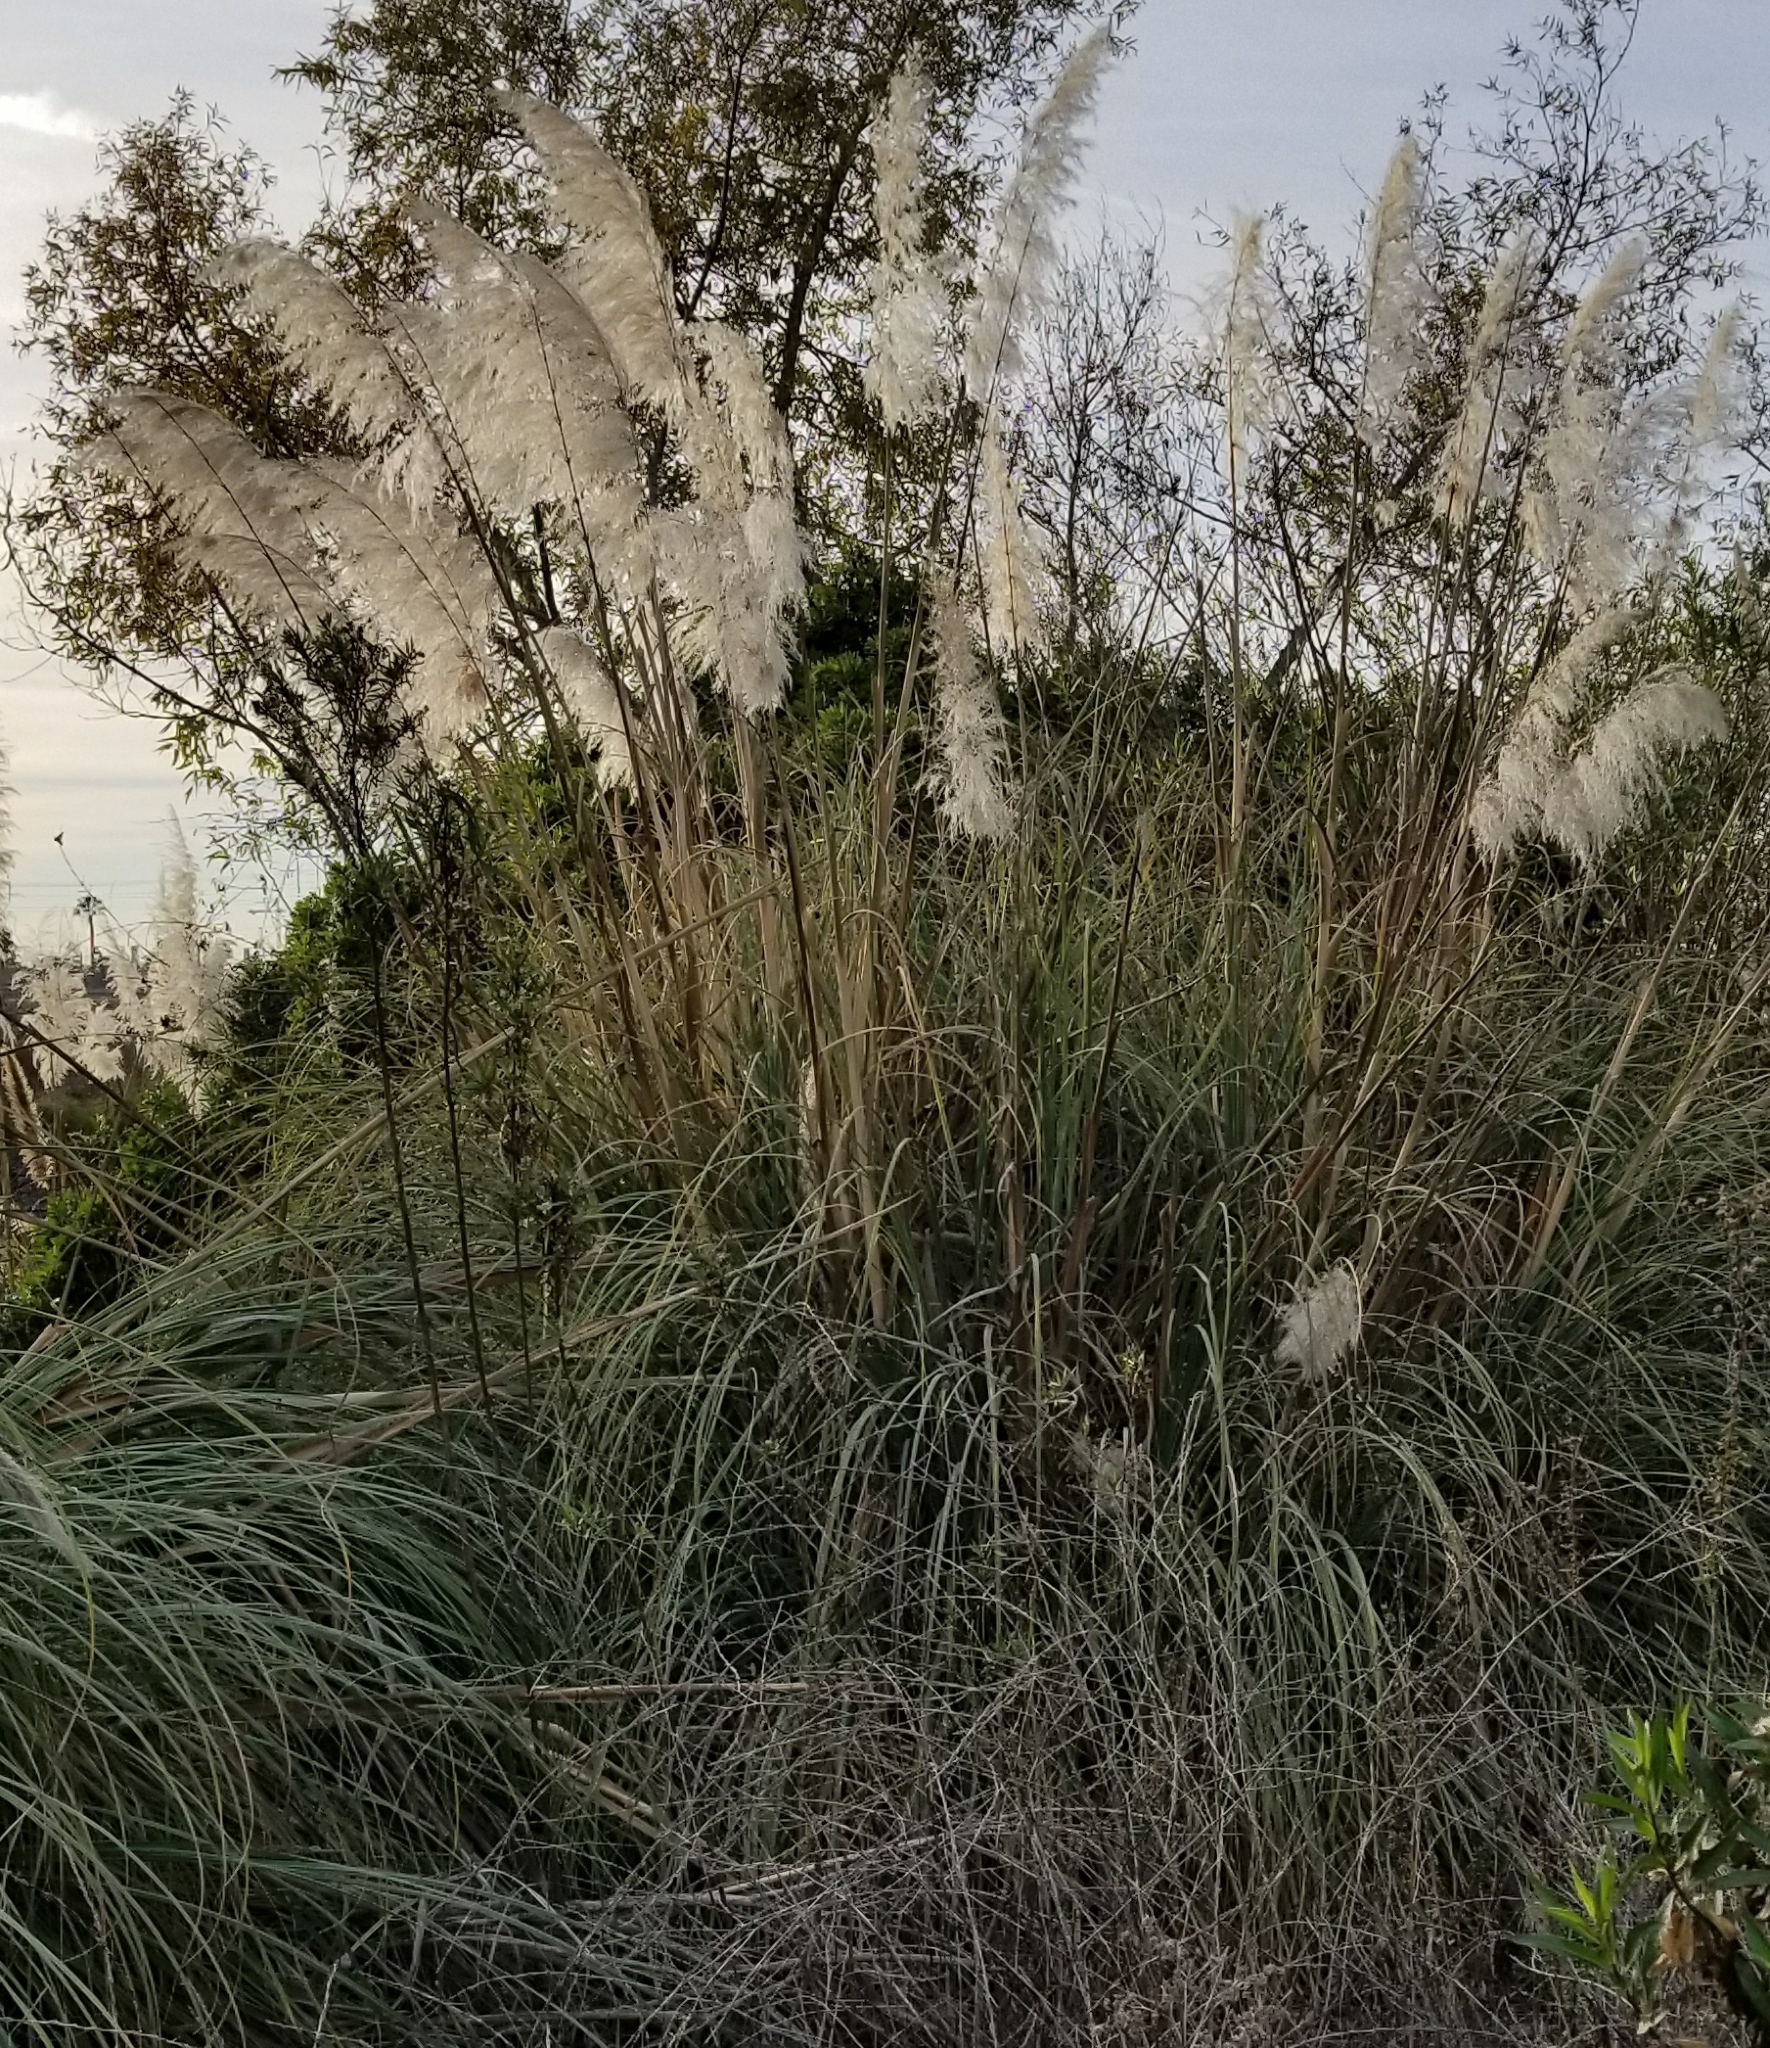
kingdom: Plantae
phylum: Tracheophyta
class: Liliopsida
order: Poales
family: Poaceae
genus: Cortaderia
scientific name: Cortaderia selloana
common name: Uruguayan pampas grass
